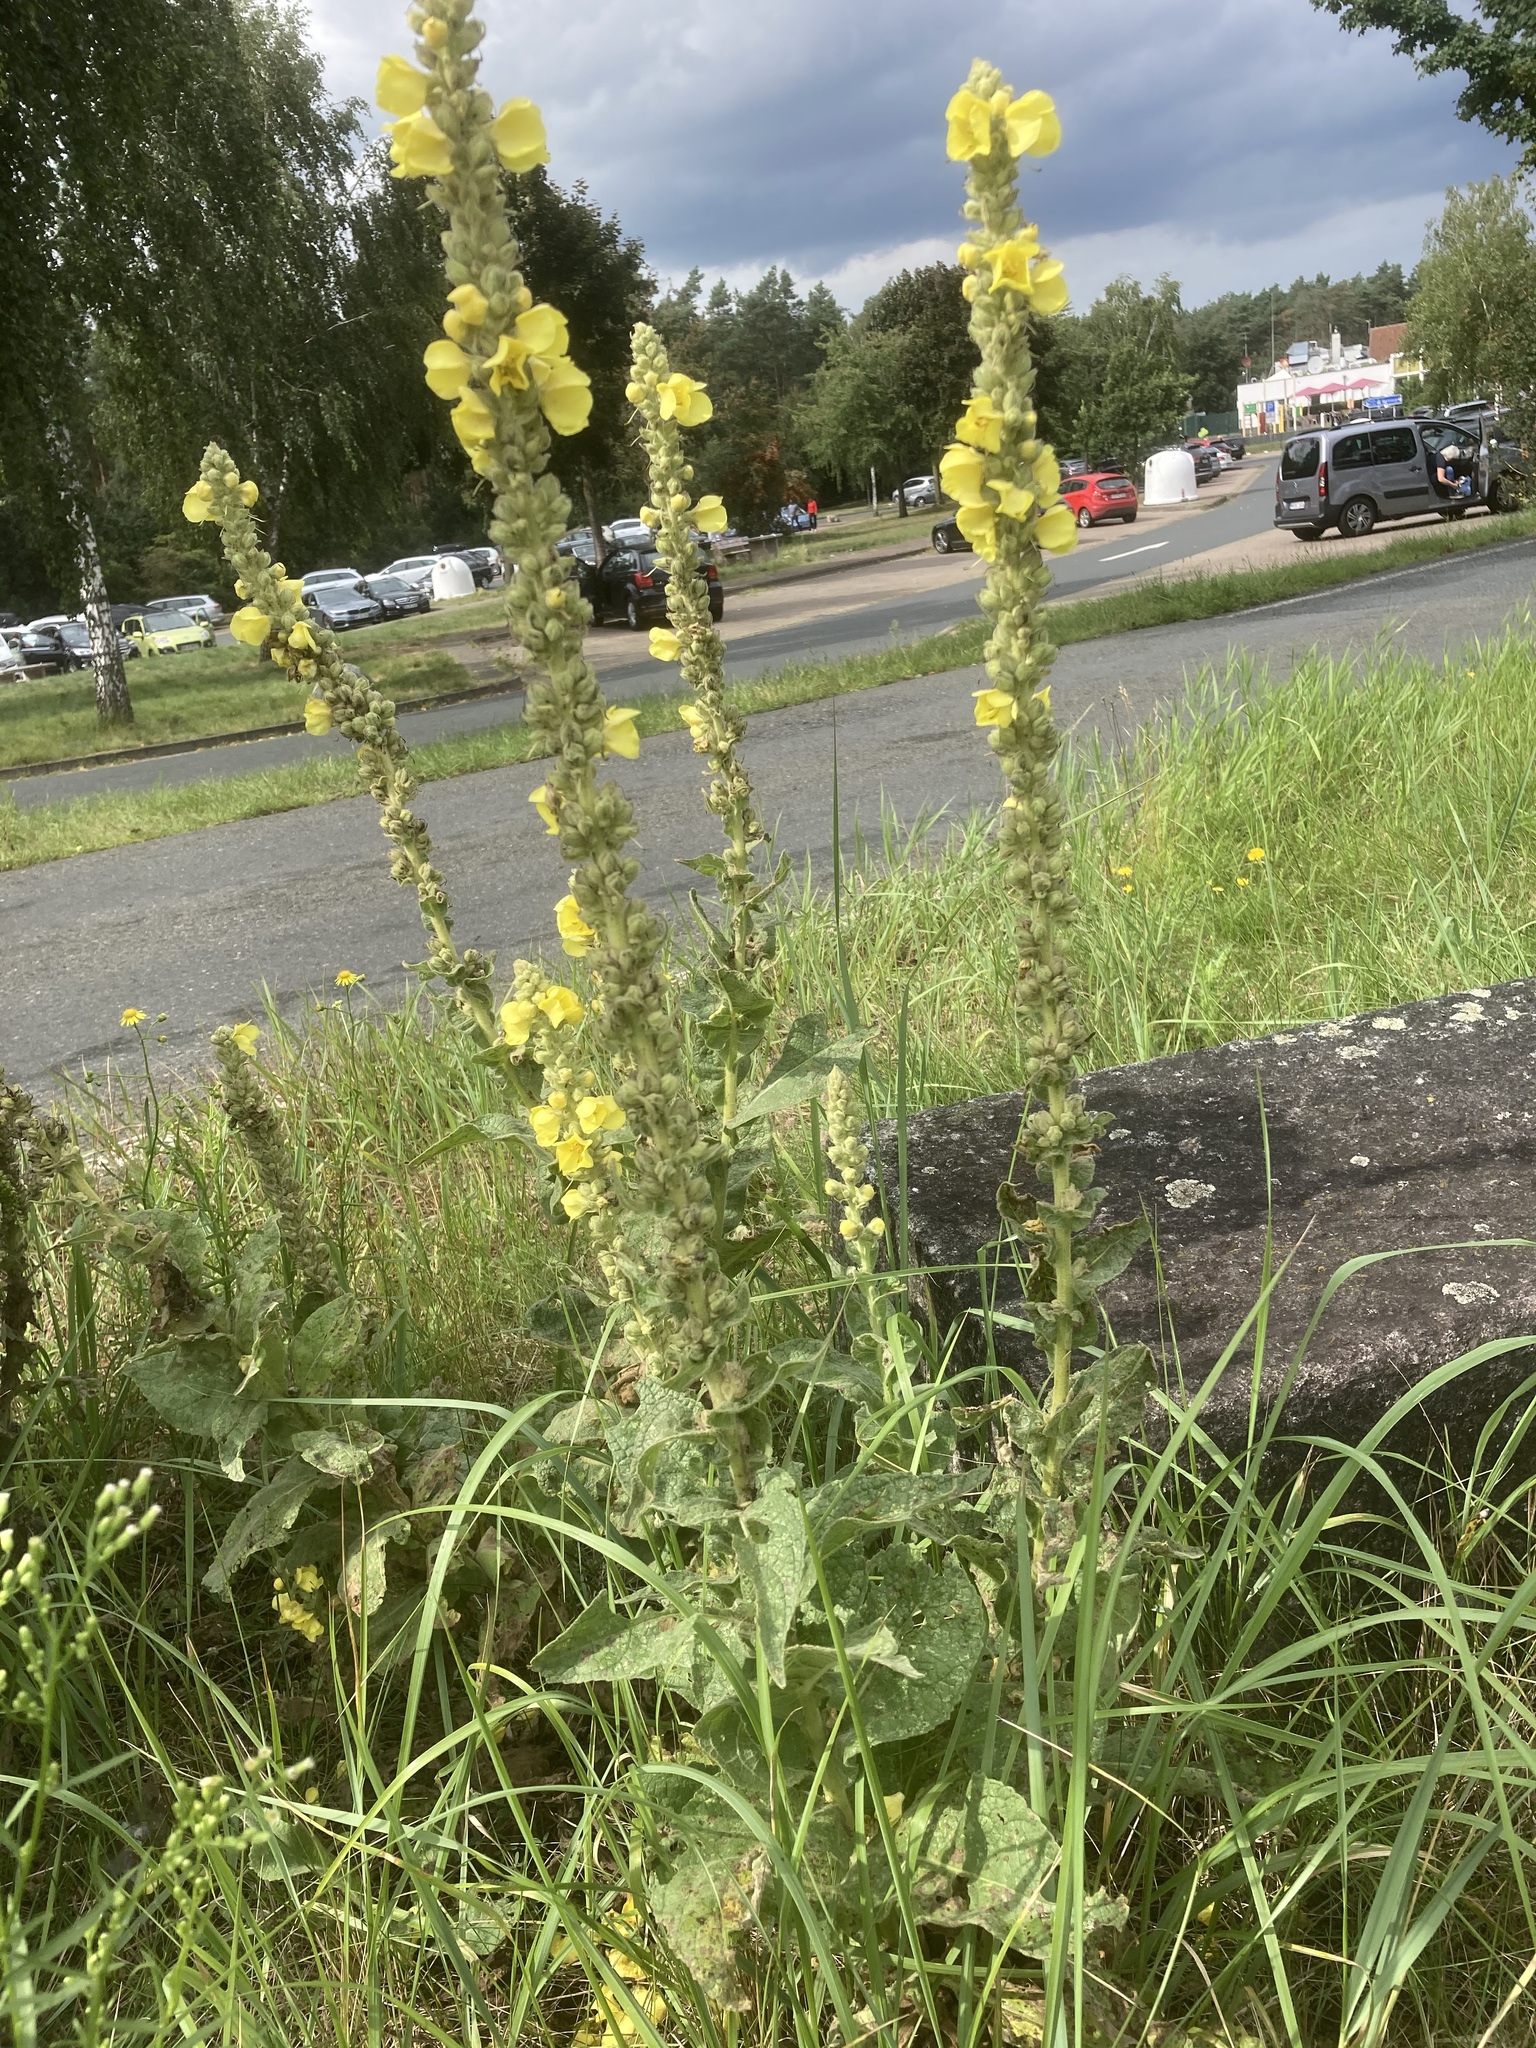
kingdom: Plantae
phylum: Tracheophyta
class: Magnoliopsida
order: Lamiales
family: Scrophulariaceae
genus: Verbascum
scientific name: Verbascum phlomoides
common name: Orange mullein
